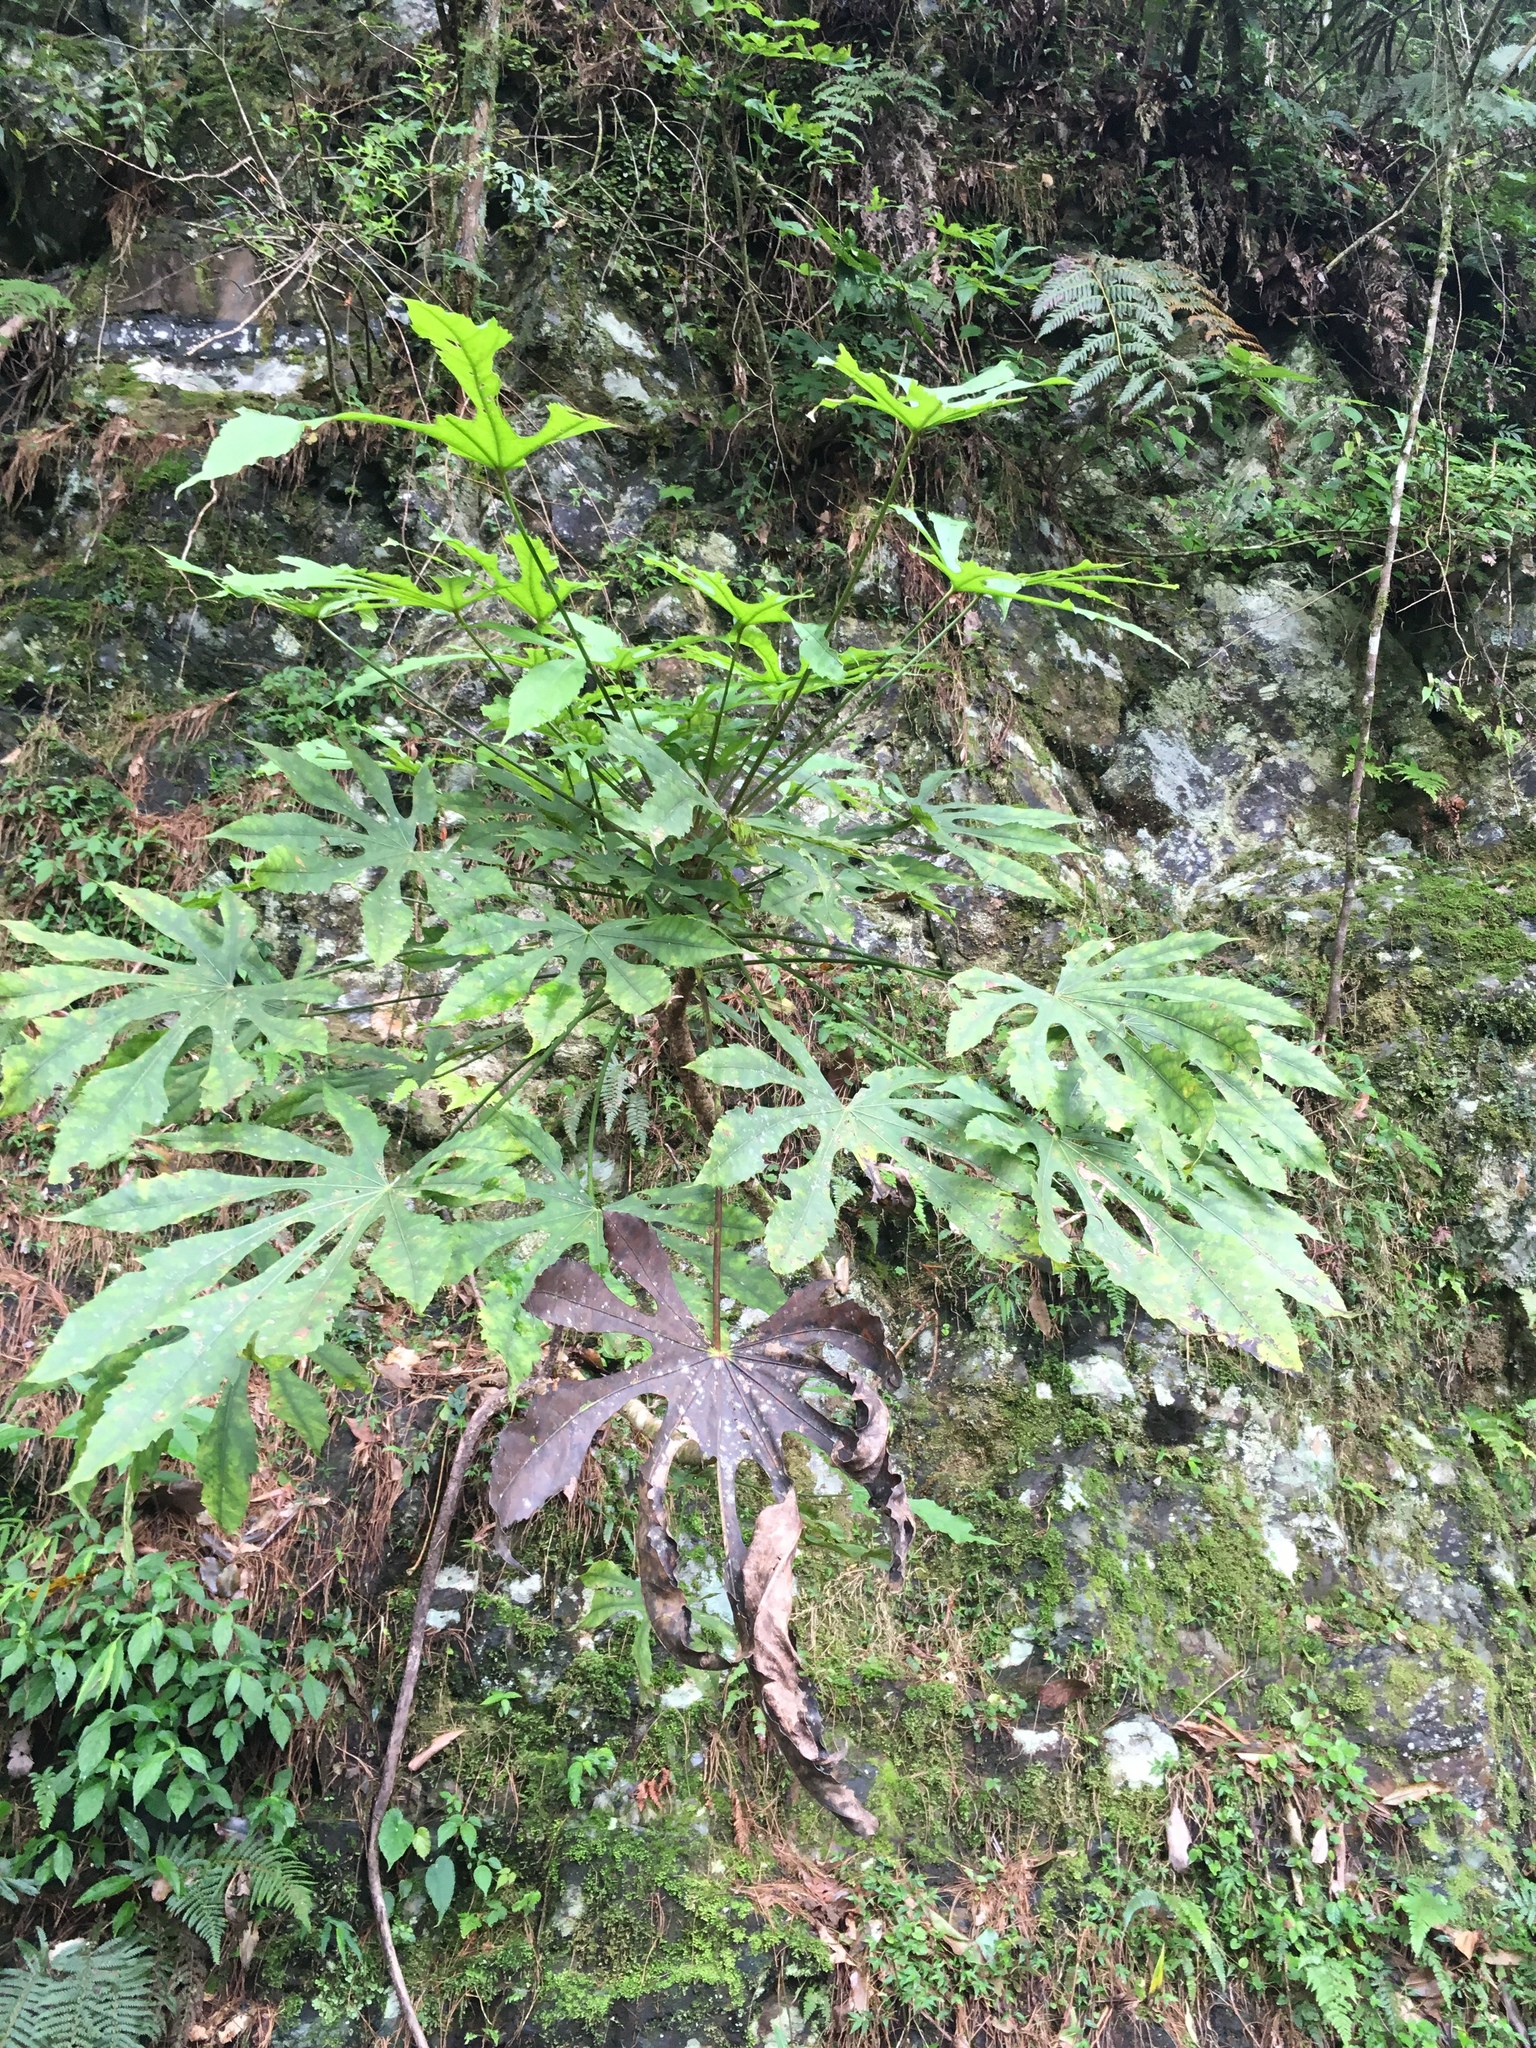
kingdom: Plantae
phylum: Tracheophyta
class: Magnoliopsida
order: Apiales
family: Araliaceae
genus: Fatsia
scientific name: Fatsia polycarpa
